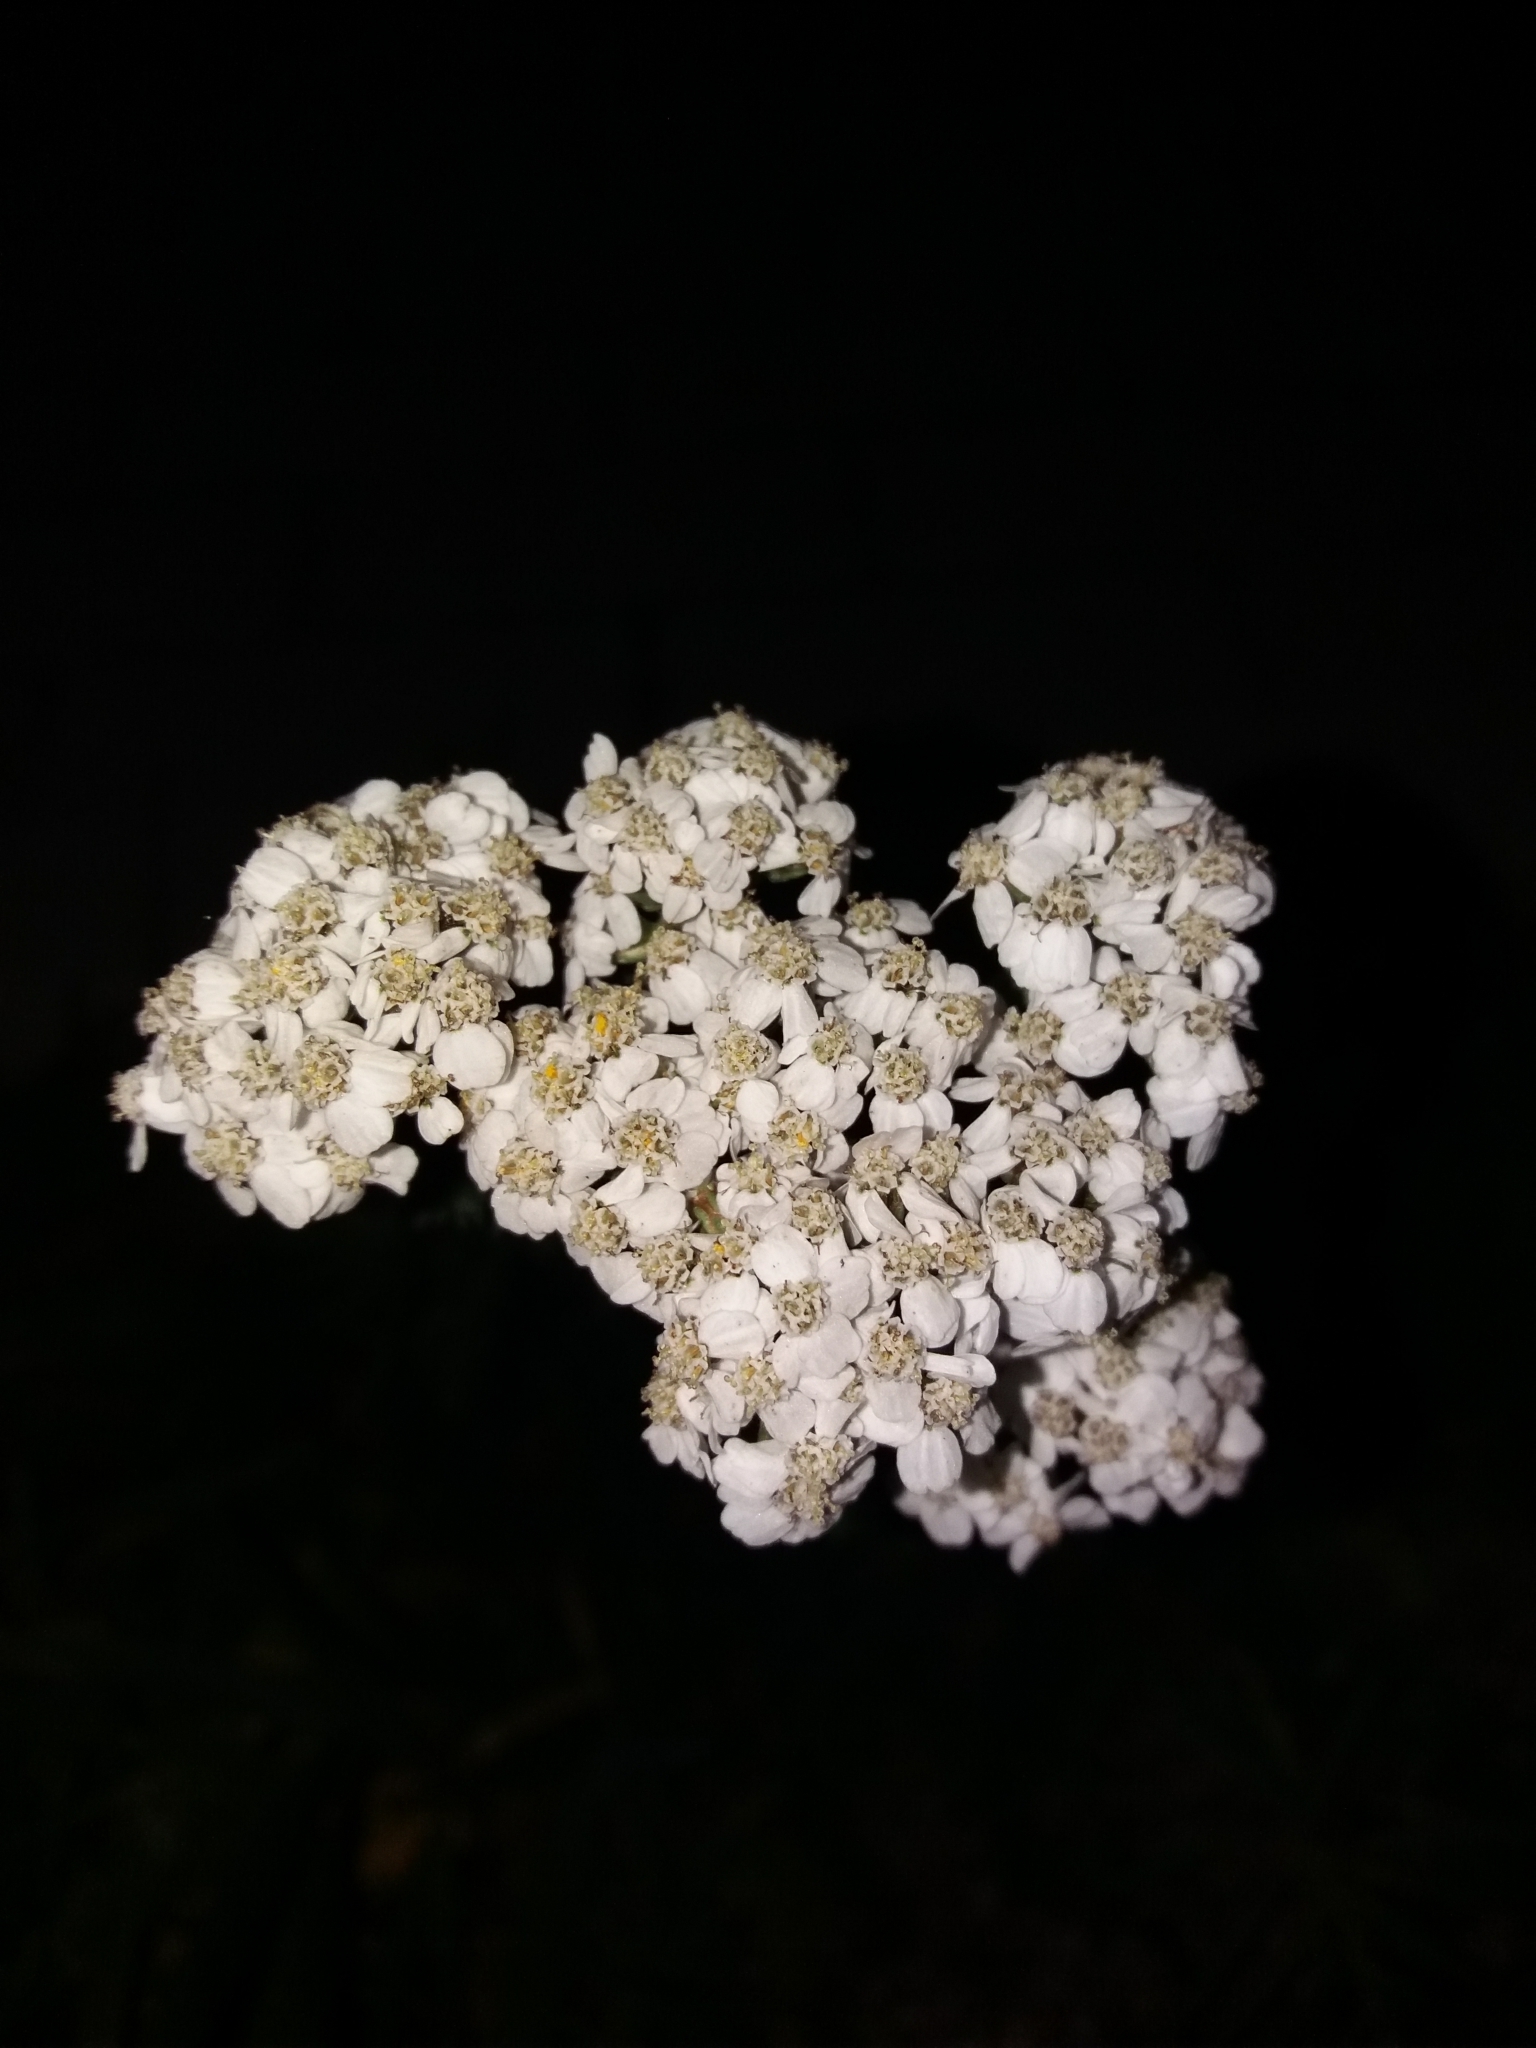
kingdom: Plantae
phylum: Tracheophyta
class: Magnoliopsida
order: Asterales
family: Asteraceae
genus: Achillea
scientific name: Achillea millefolium
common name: Yarrow
